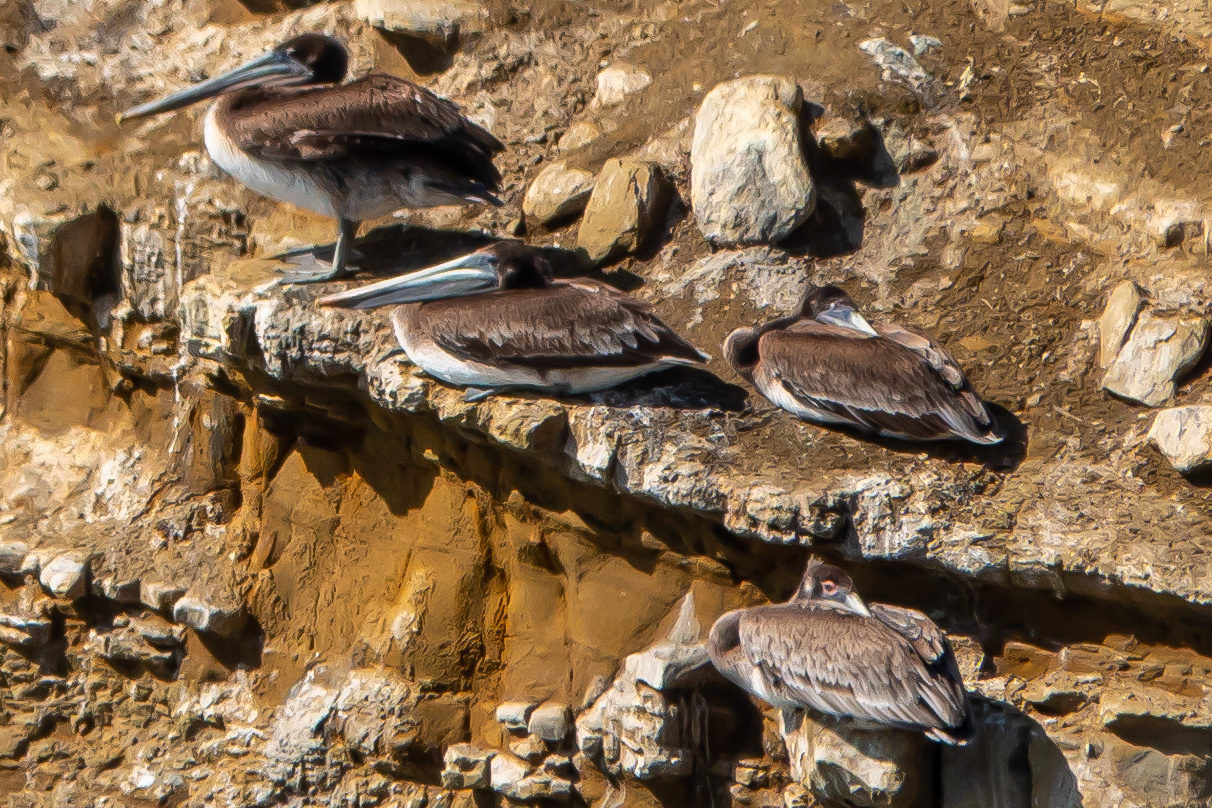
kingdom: Animalia
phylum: Chordata
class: Aves
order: Pelecaniformes
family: Pelecanidae
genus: Pelecanus
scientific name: Pelecanus occidentalis
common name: Brown pelican
